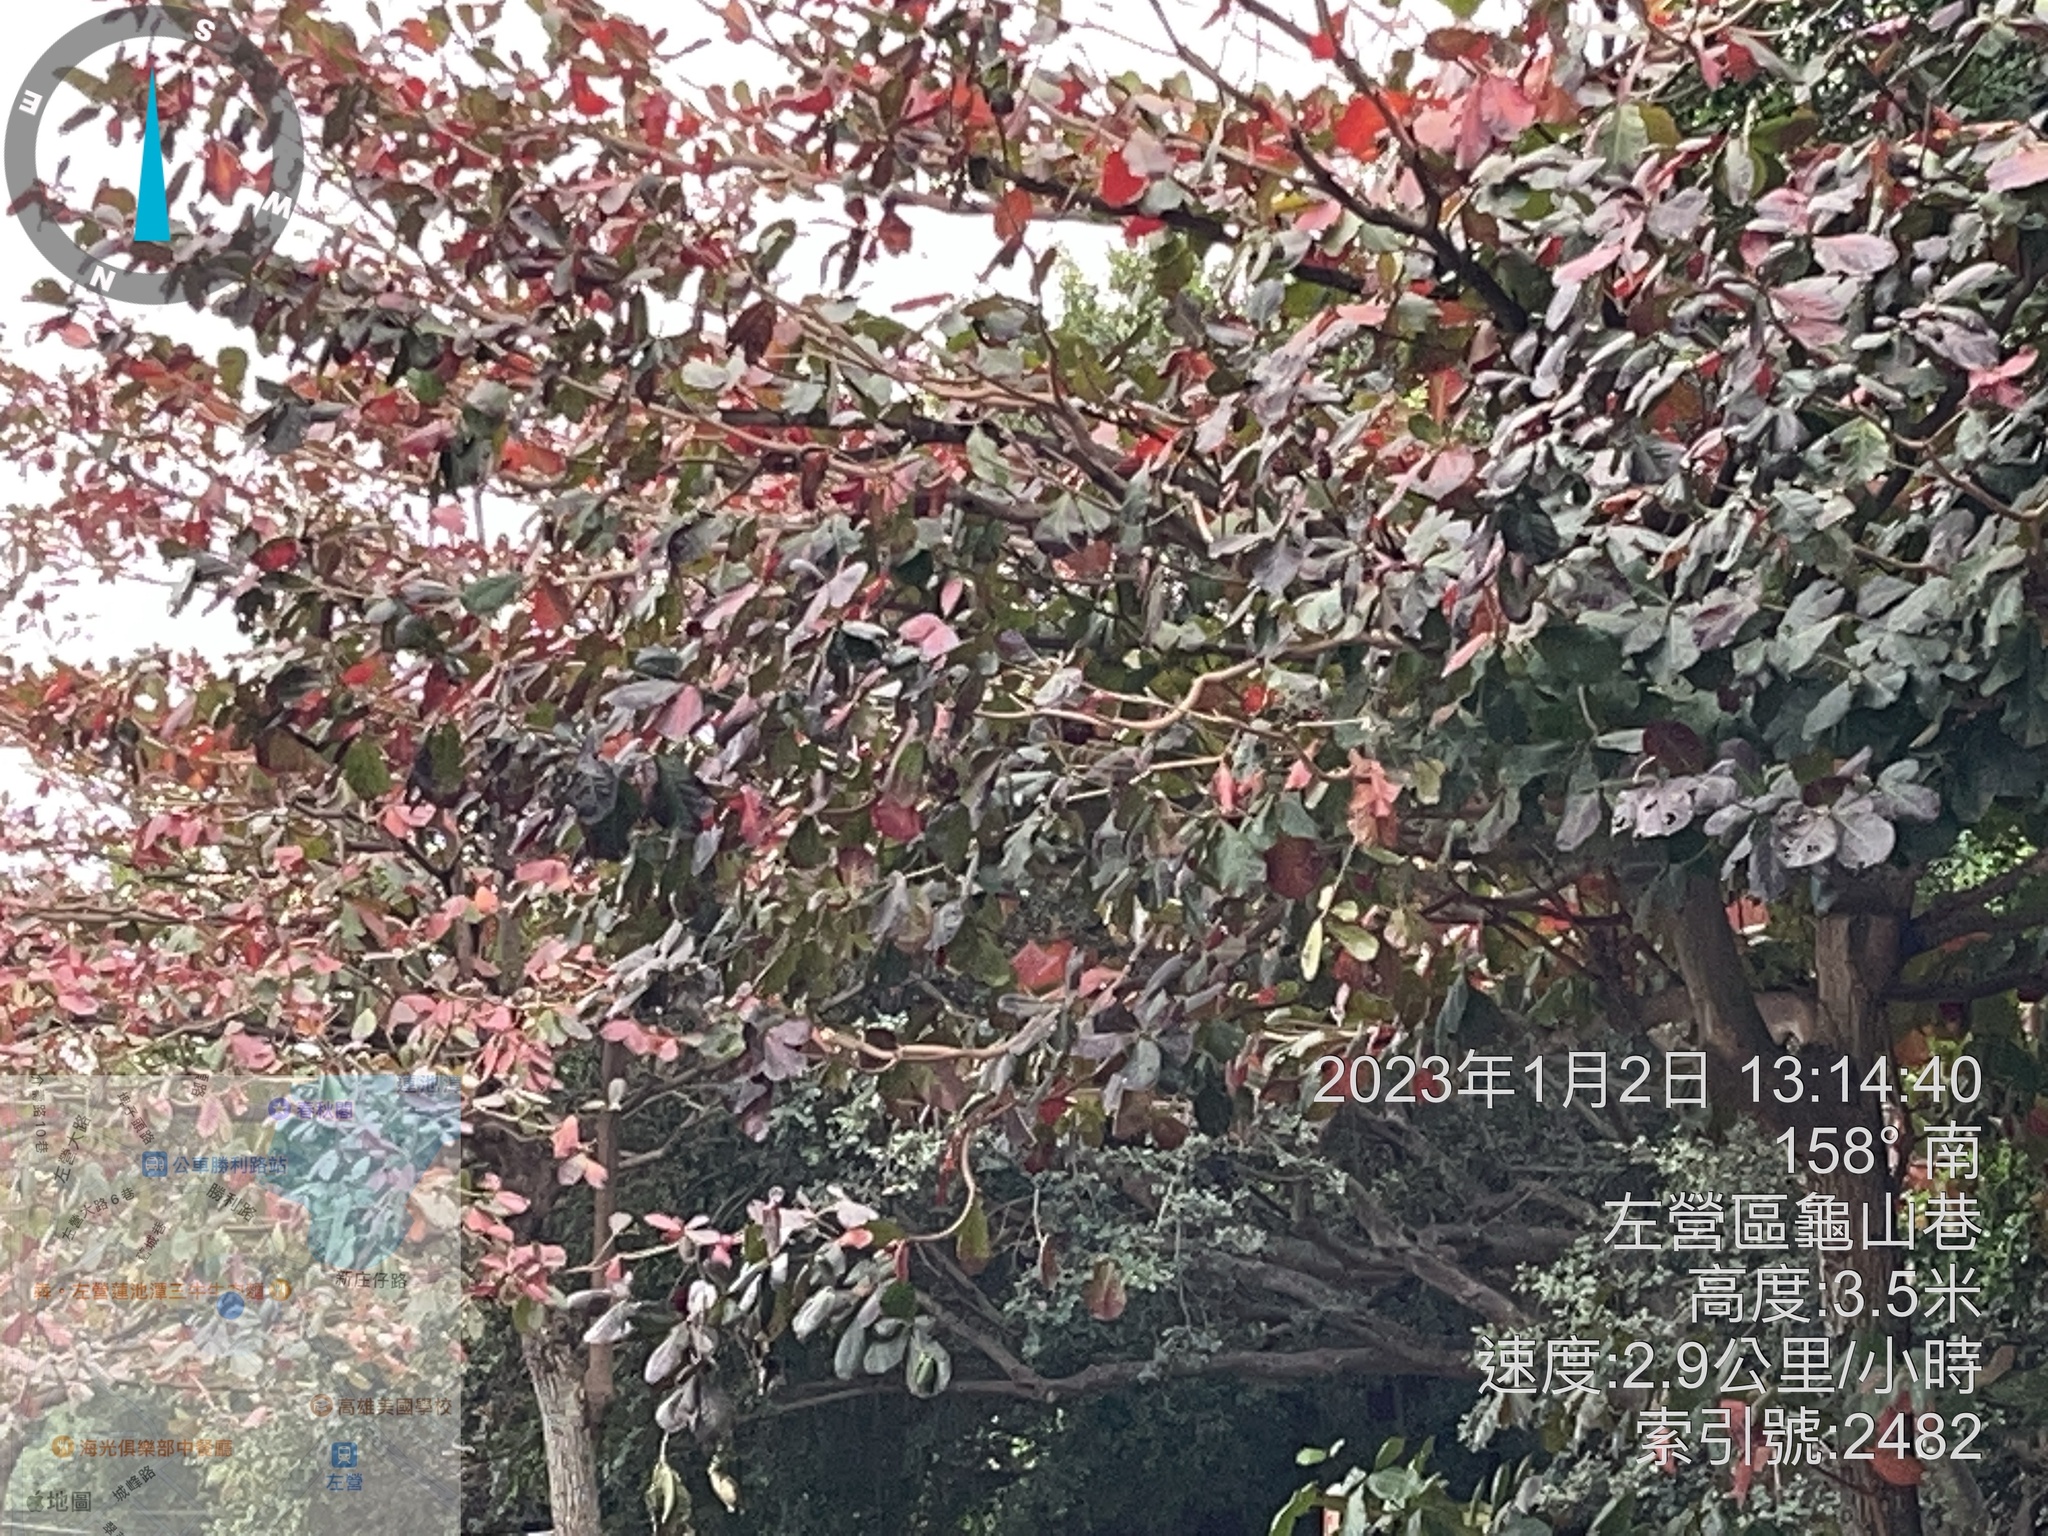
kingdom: Plantae
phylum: Tracheophyta
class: Magnoliopsida
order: Myrtales
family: Combretaceae
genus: Terminalia
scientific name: Terminalia catappa
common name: Tropical almond
